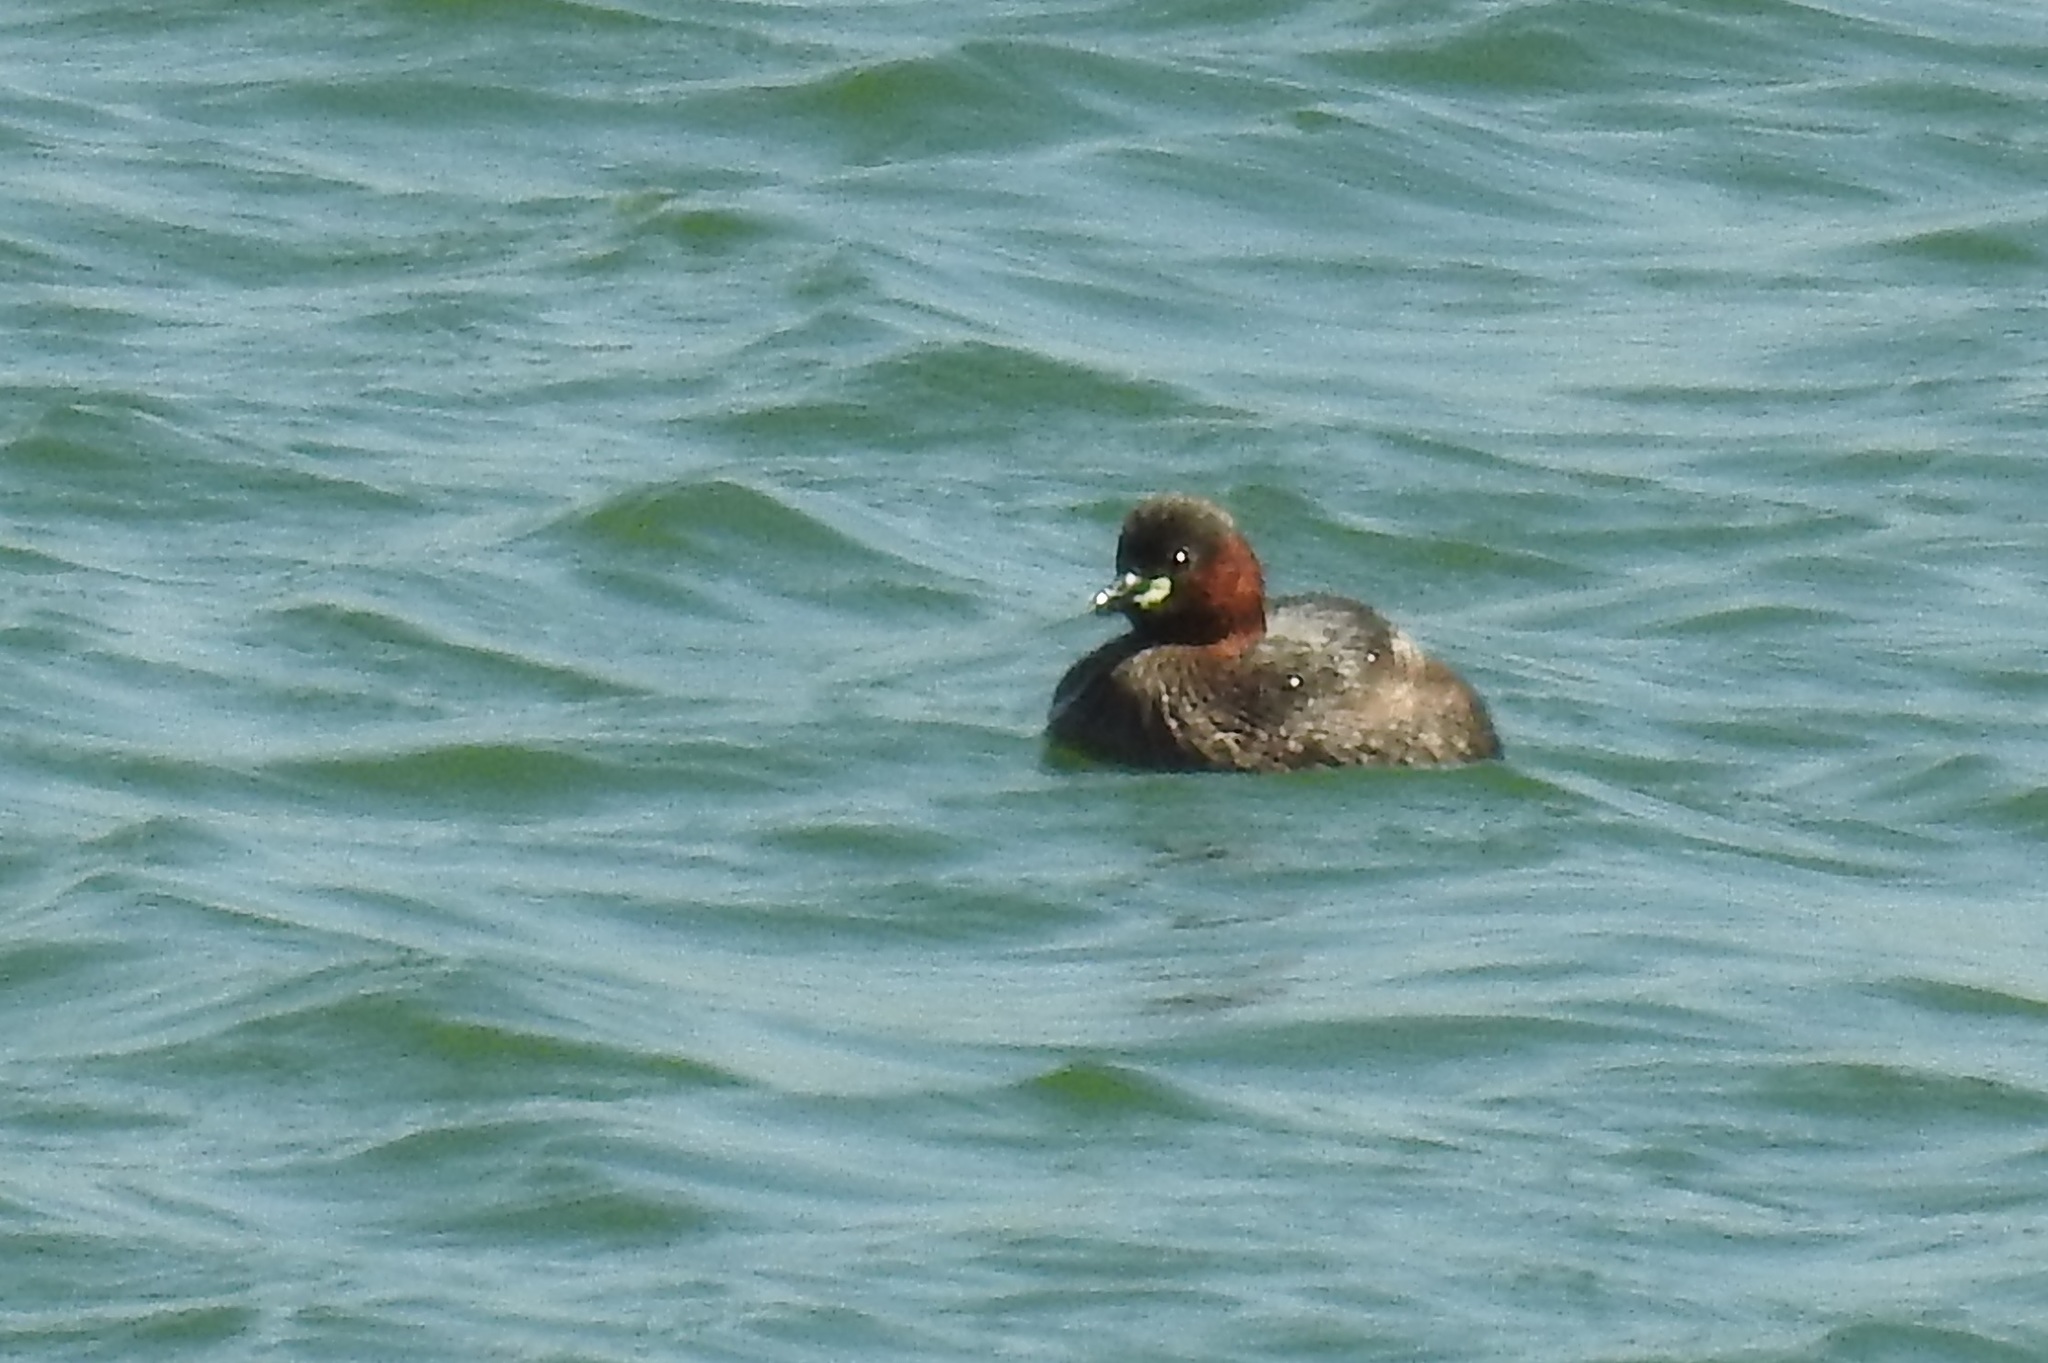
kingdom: Animalia
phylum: Chordata
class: Aves
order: Podicipediformes
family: Podicipedidae
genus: Tachybaptus
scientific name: Tachybaptus ruficollis
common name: Little grebe
